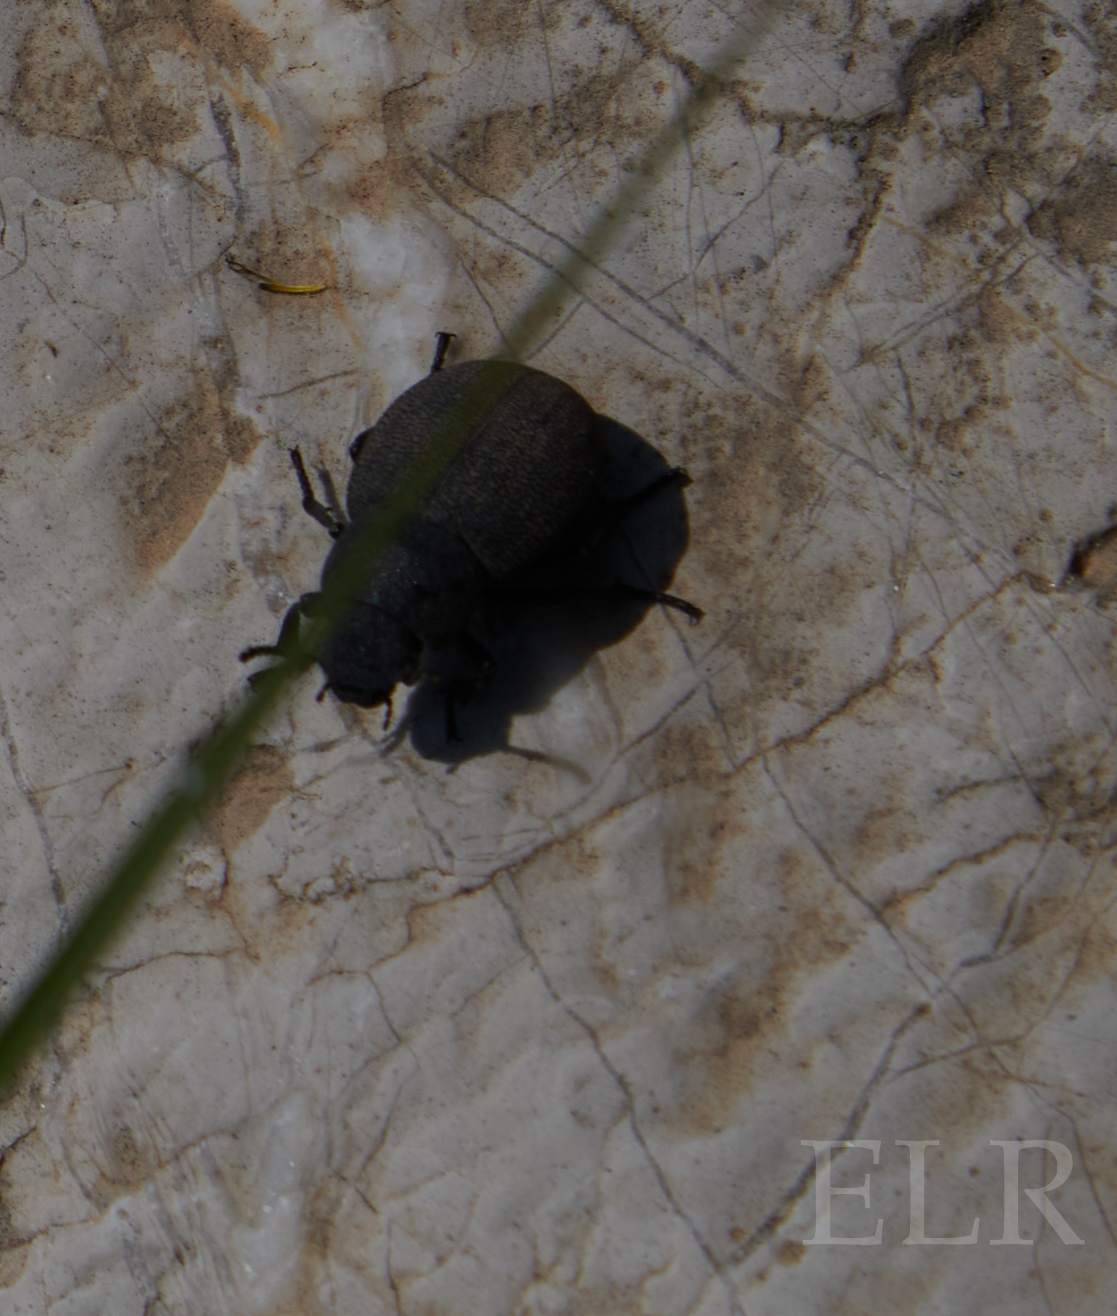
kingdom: Animalia
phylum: Arthropoda
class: Insecta
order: Coleoptera
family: Tenebrionidae
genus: Phymatiotris
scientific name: Phymatiotris
